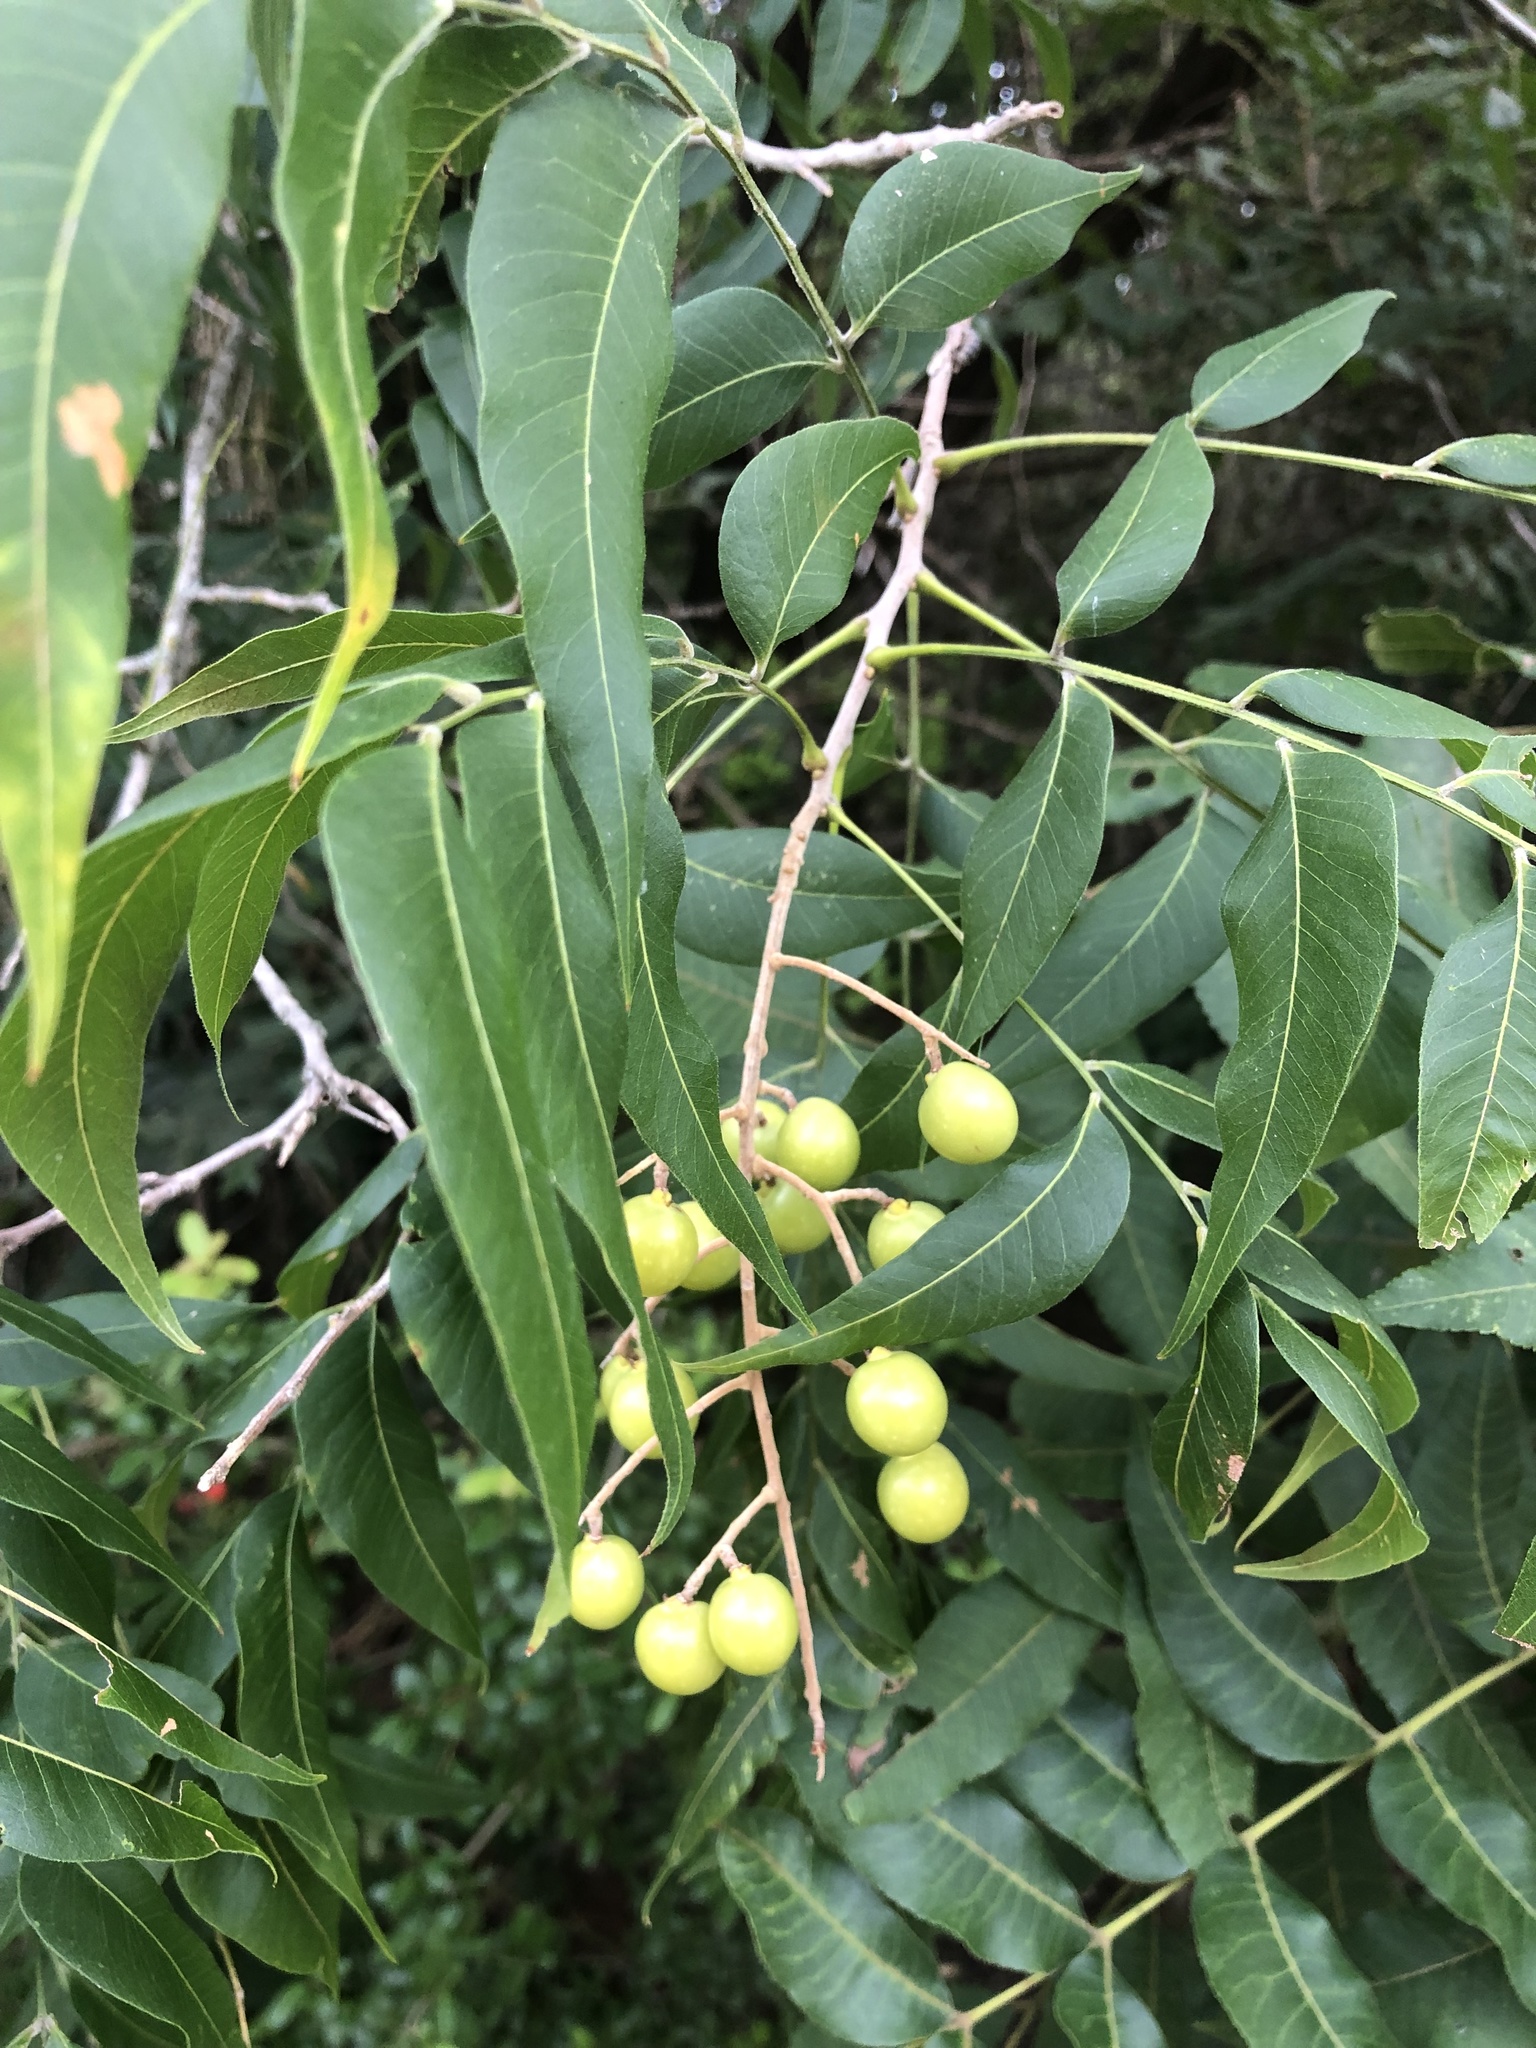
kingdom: Plantae
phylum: Tracheophyta
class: Magnoliopsida
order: Sapindales
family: Sapindaceae
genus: Sapindus
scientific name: Sapindus drummondii
